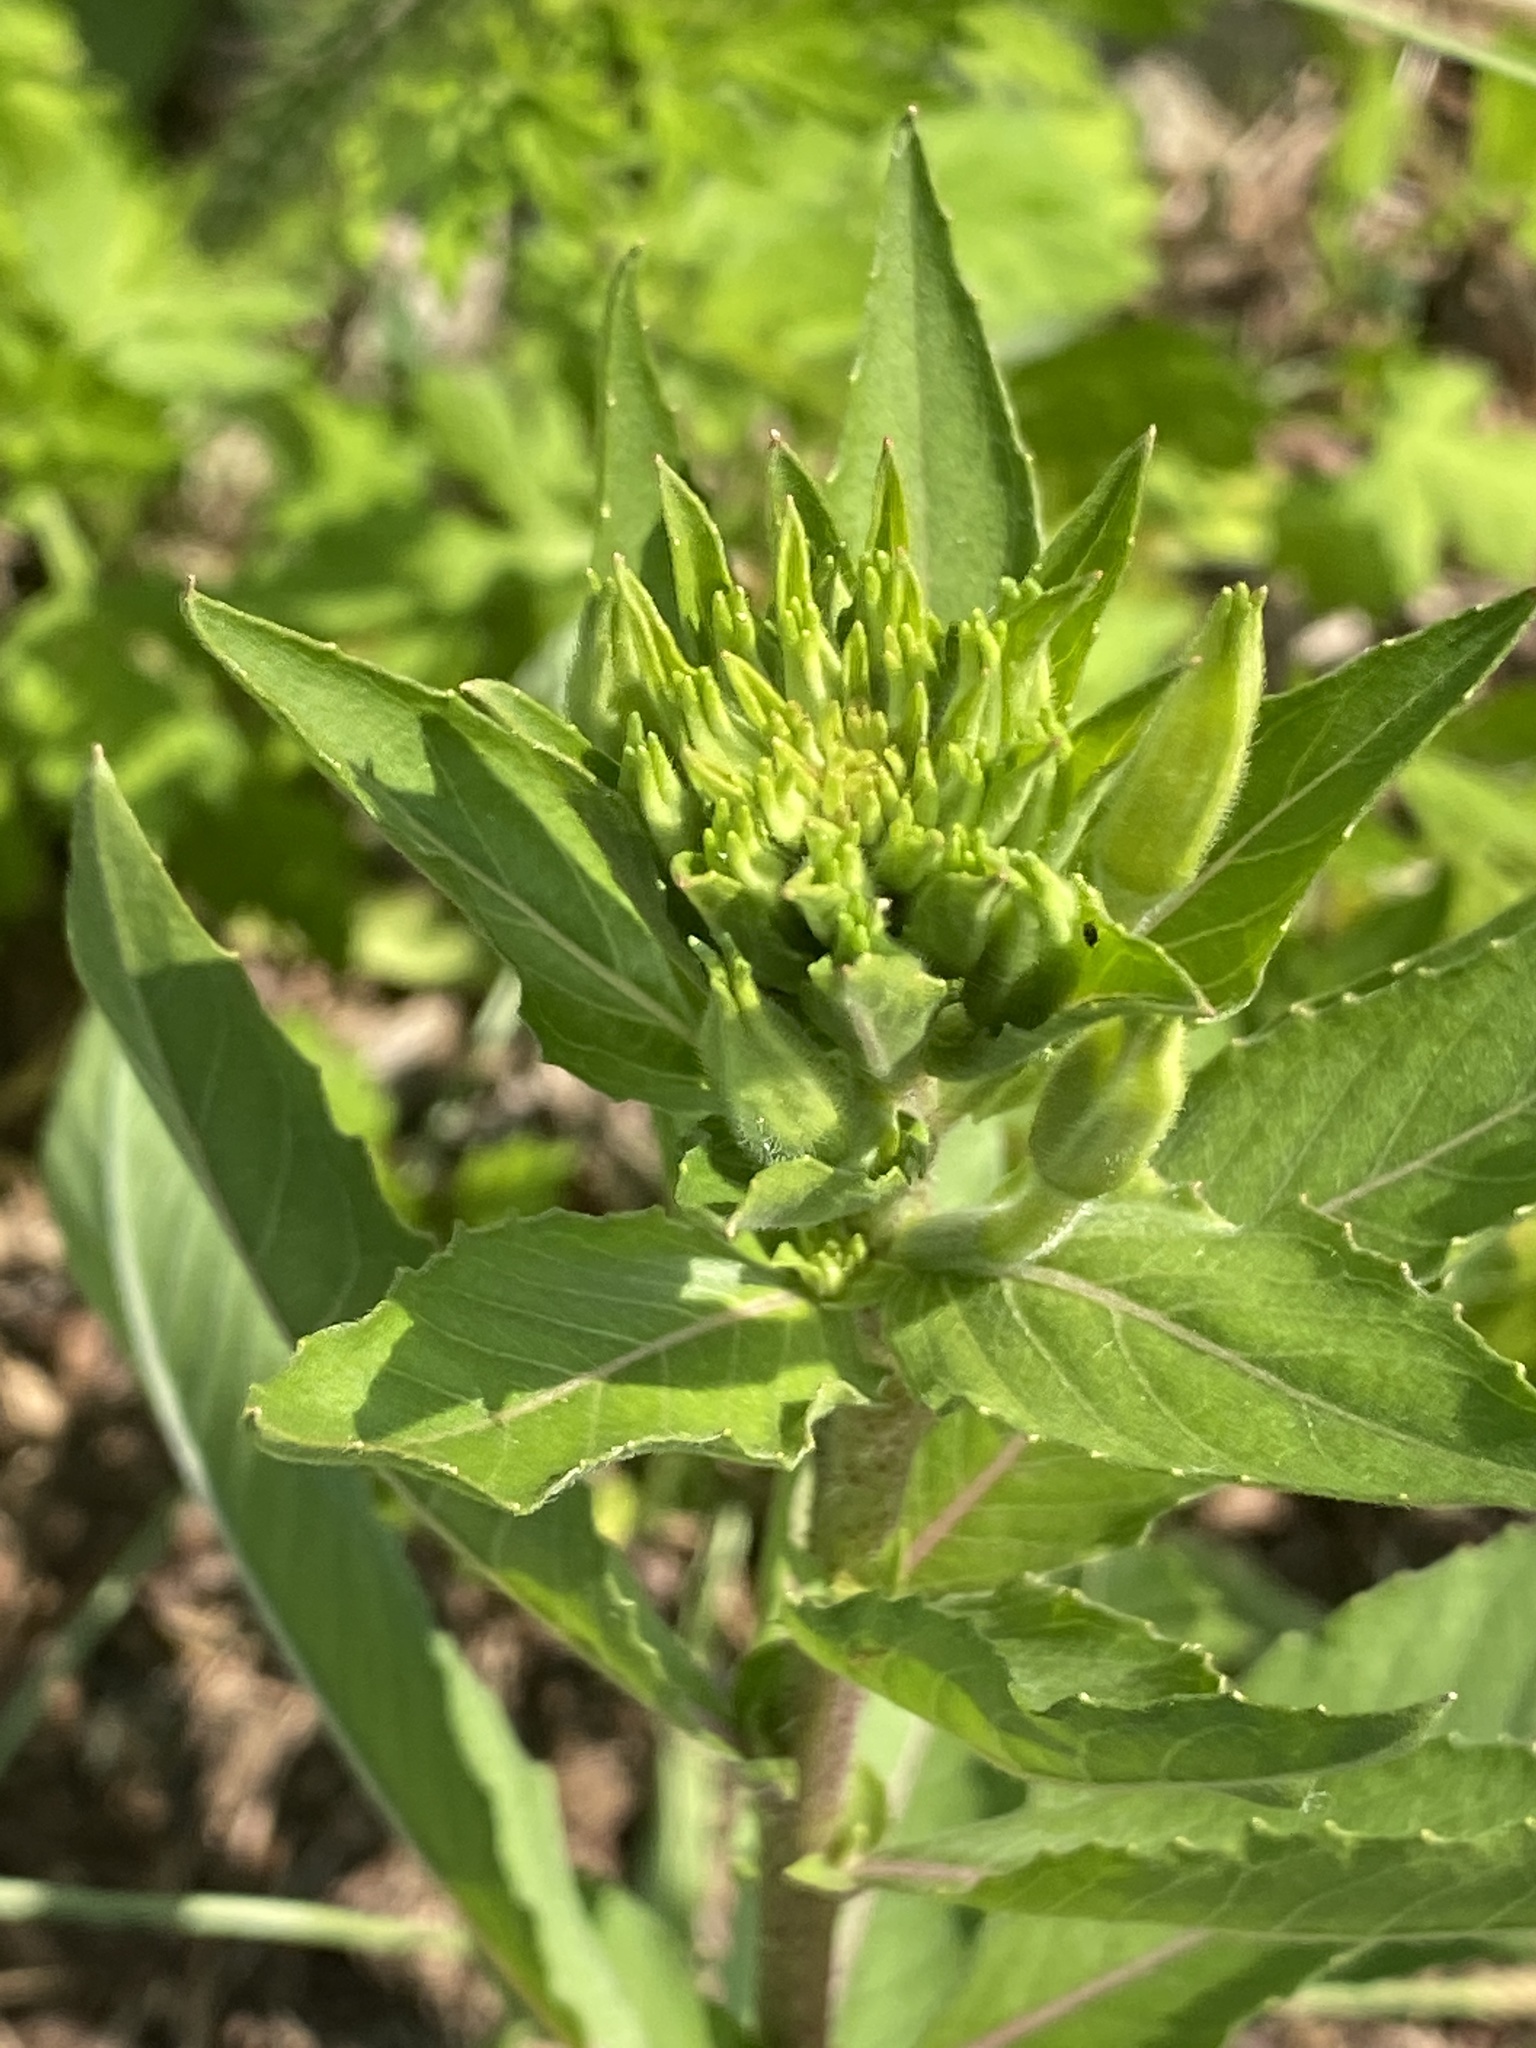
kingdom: Plantae
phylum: Tracheophyta
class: Magnoliopsida
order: Myrtales
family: Onagraceae
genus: Oenothera
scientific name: Oenothera biennis
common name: Common evening-primrose
